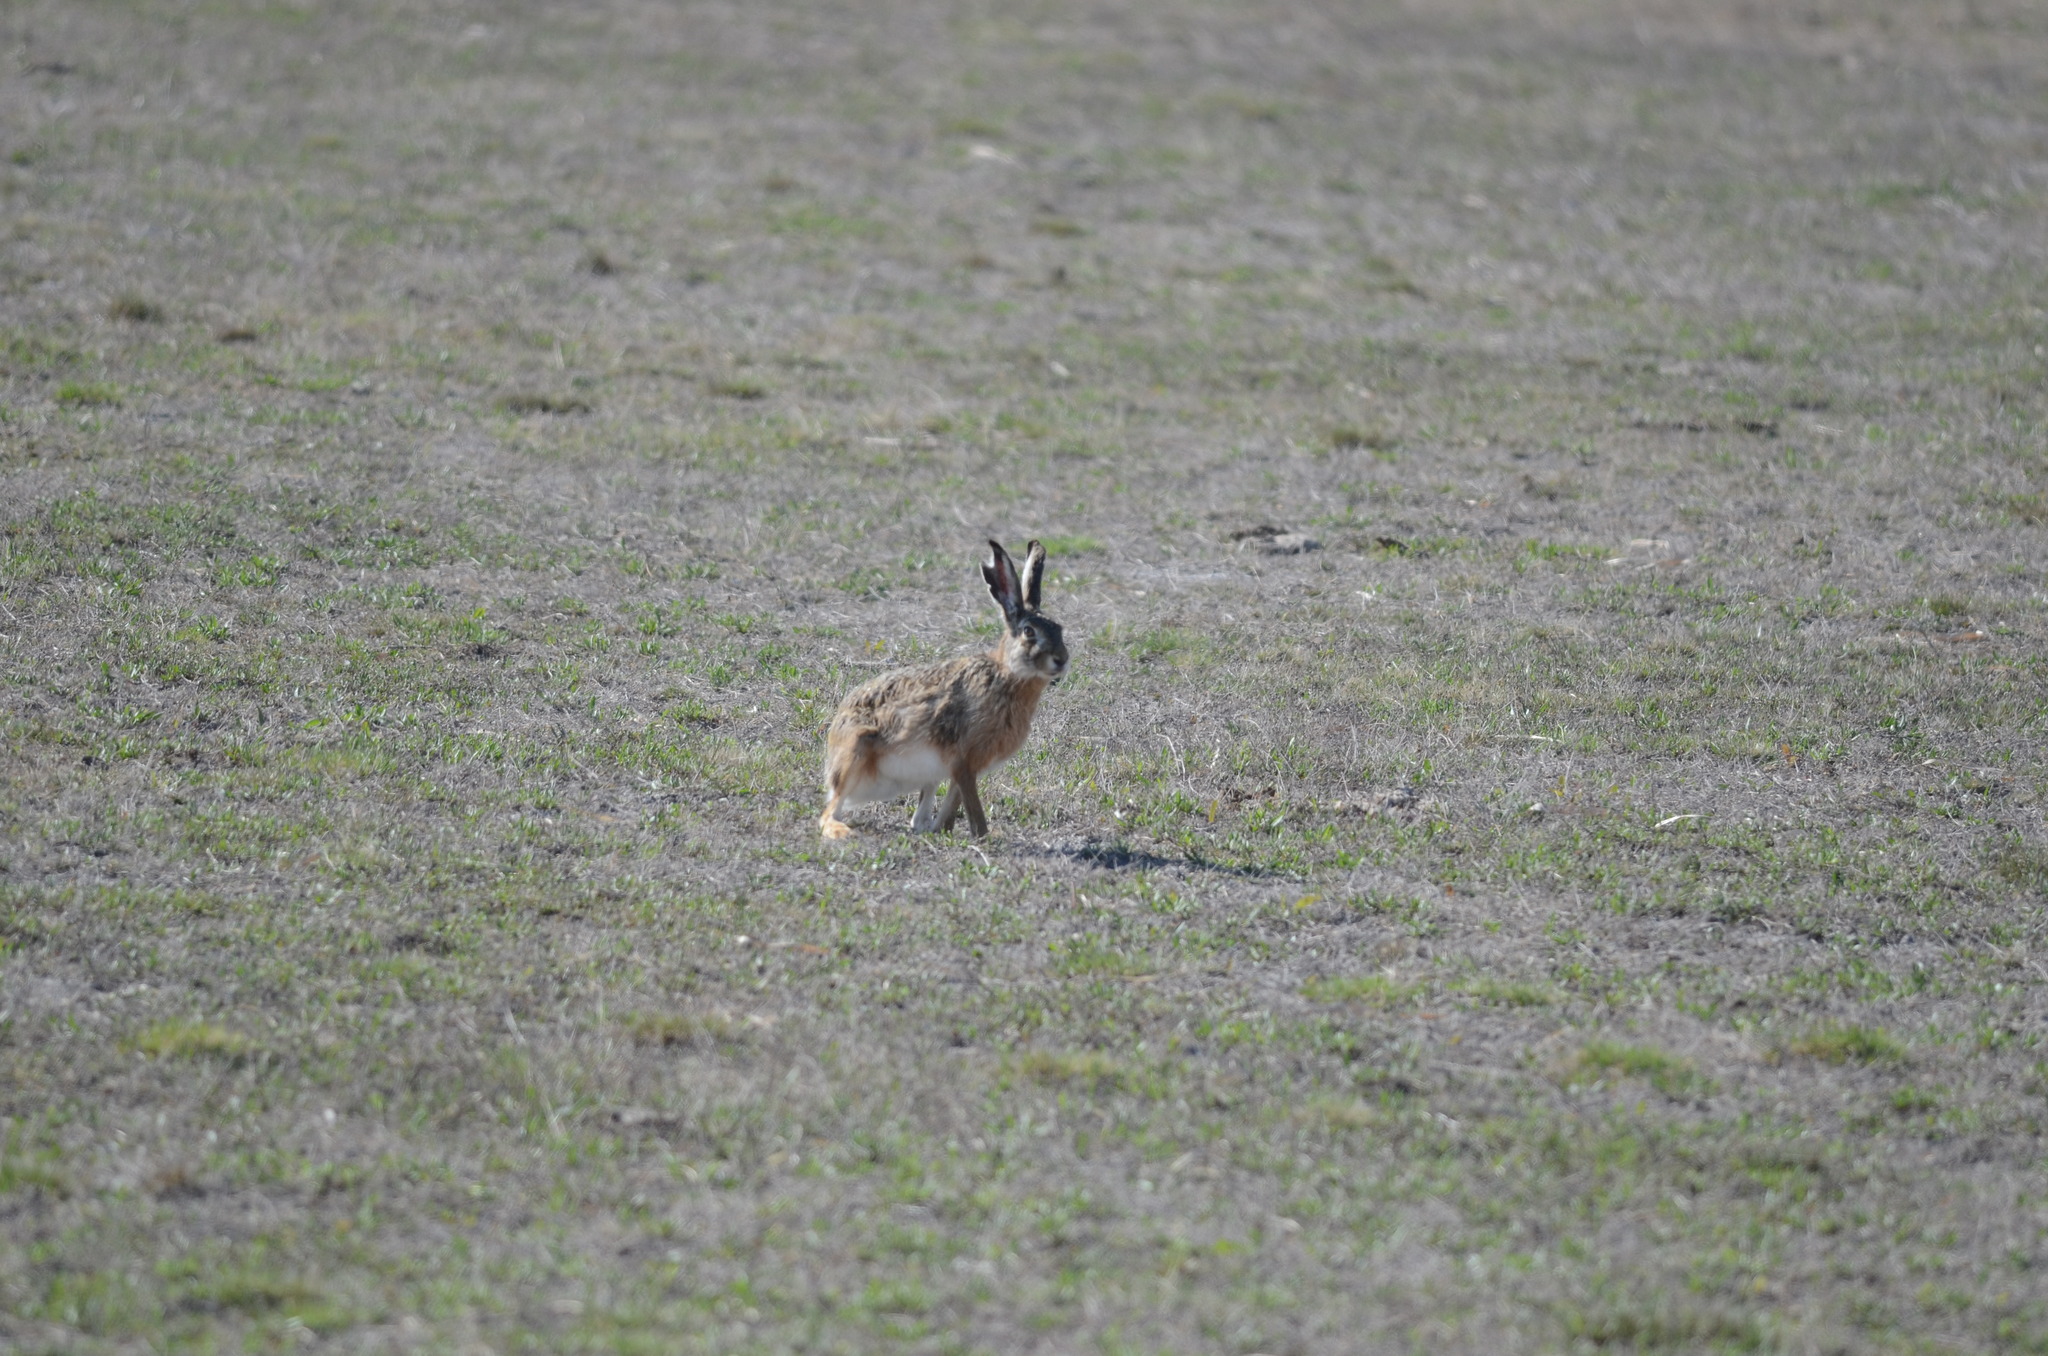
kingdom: Animalia
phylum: Chordata
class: Mammalia
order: Lagomorpha
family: Leporidae
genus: Lepus
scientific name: Lepus europaeus
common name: European hare
